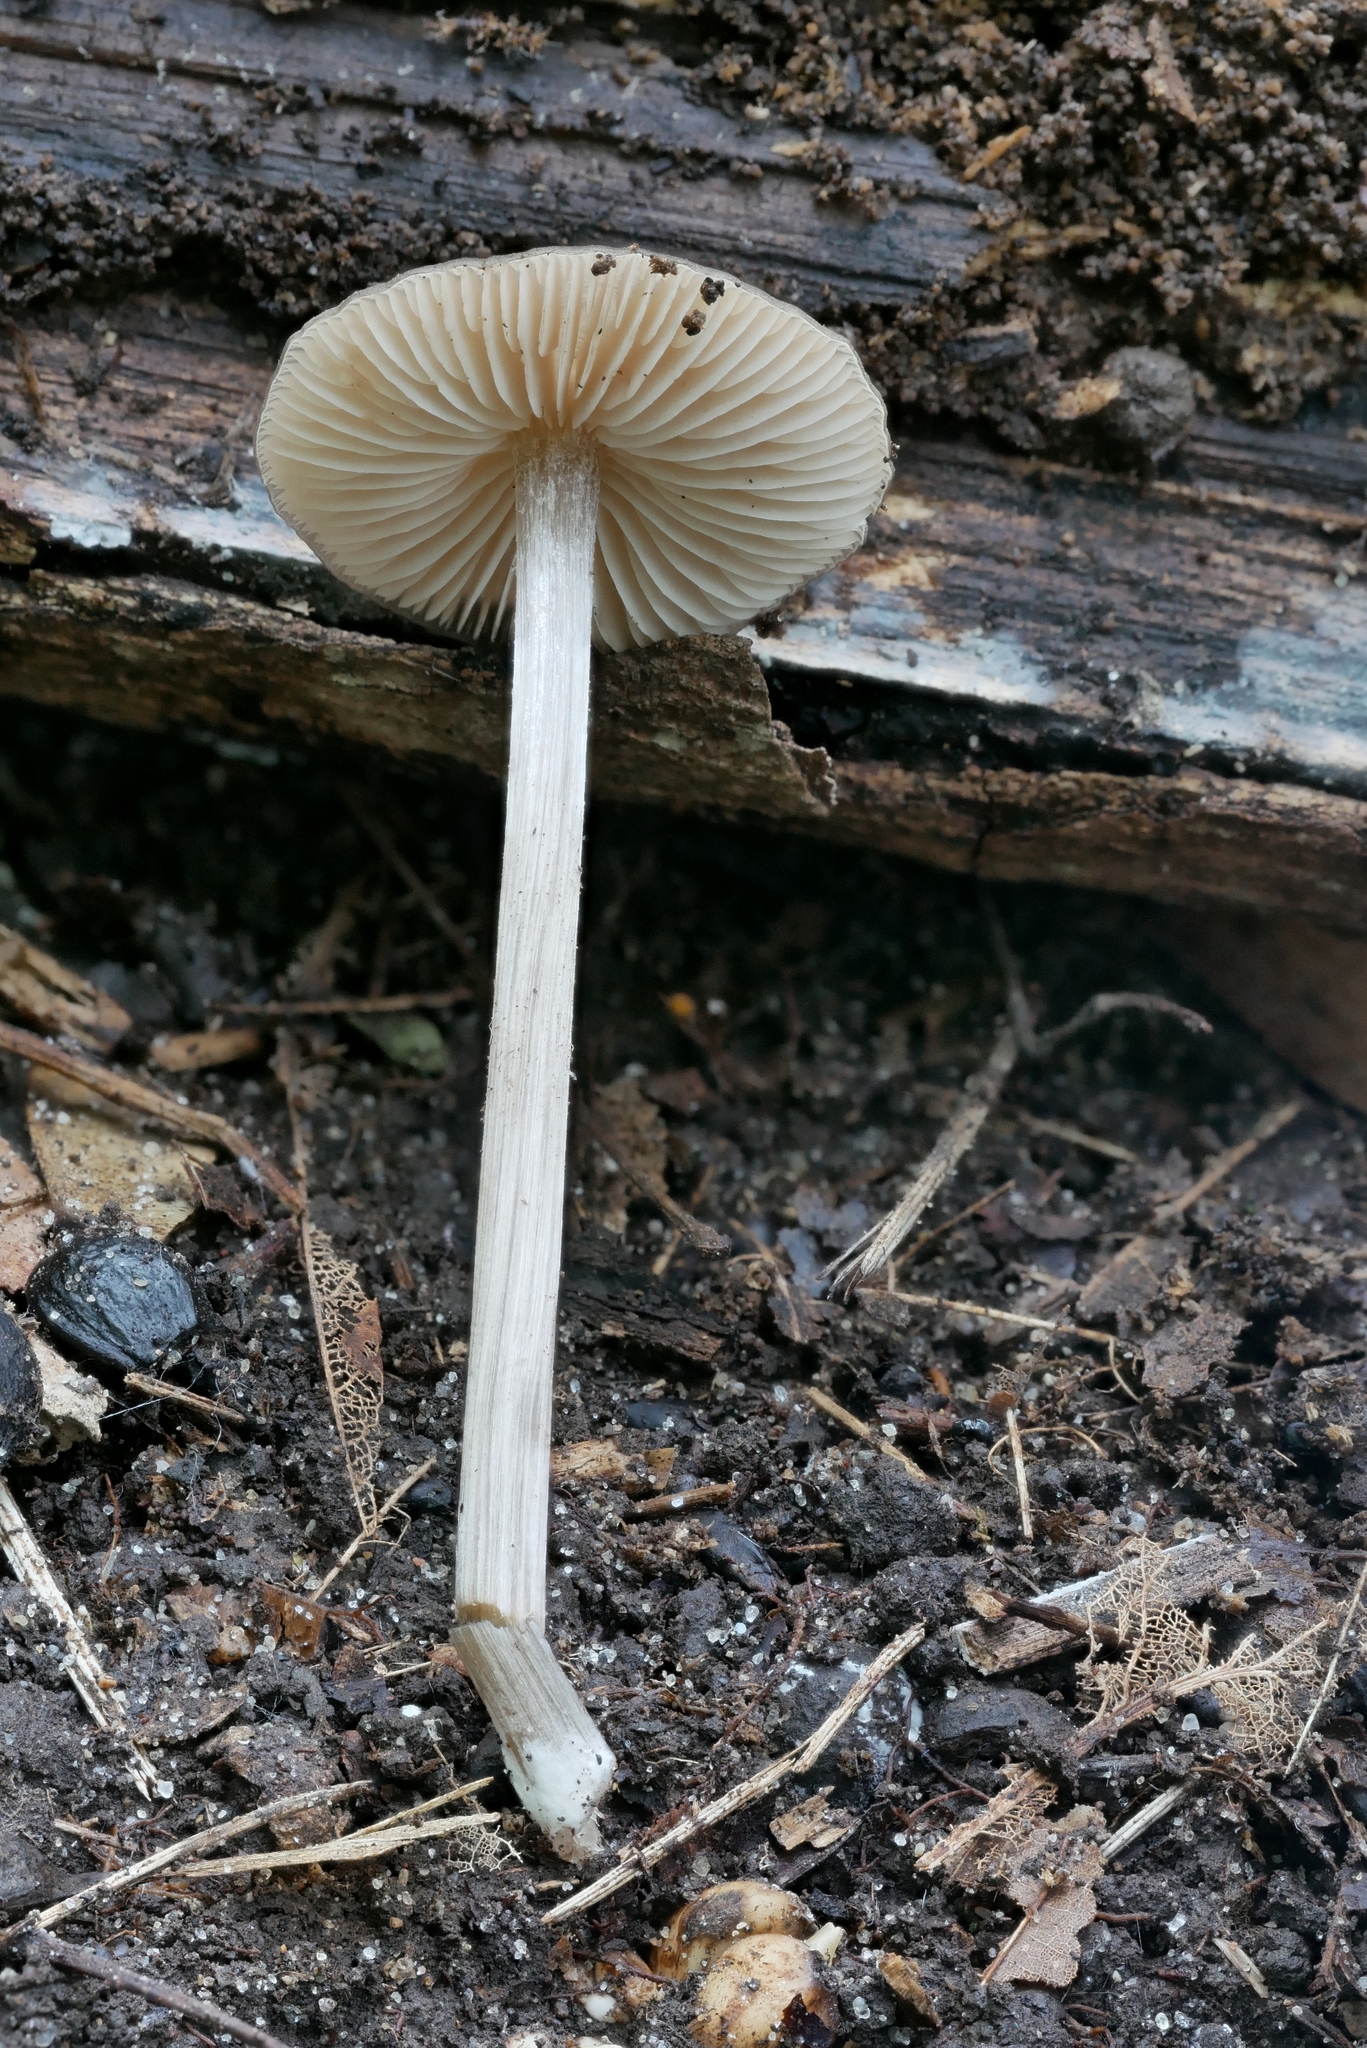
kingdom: Fungi
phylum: Basidiomycota
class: Agaricomycetes
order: Agaricales
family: Entolomataceae
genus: Entoloma
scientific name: Entoloma psammophilohebes
